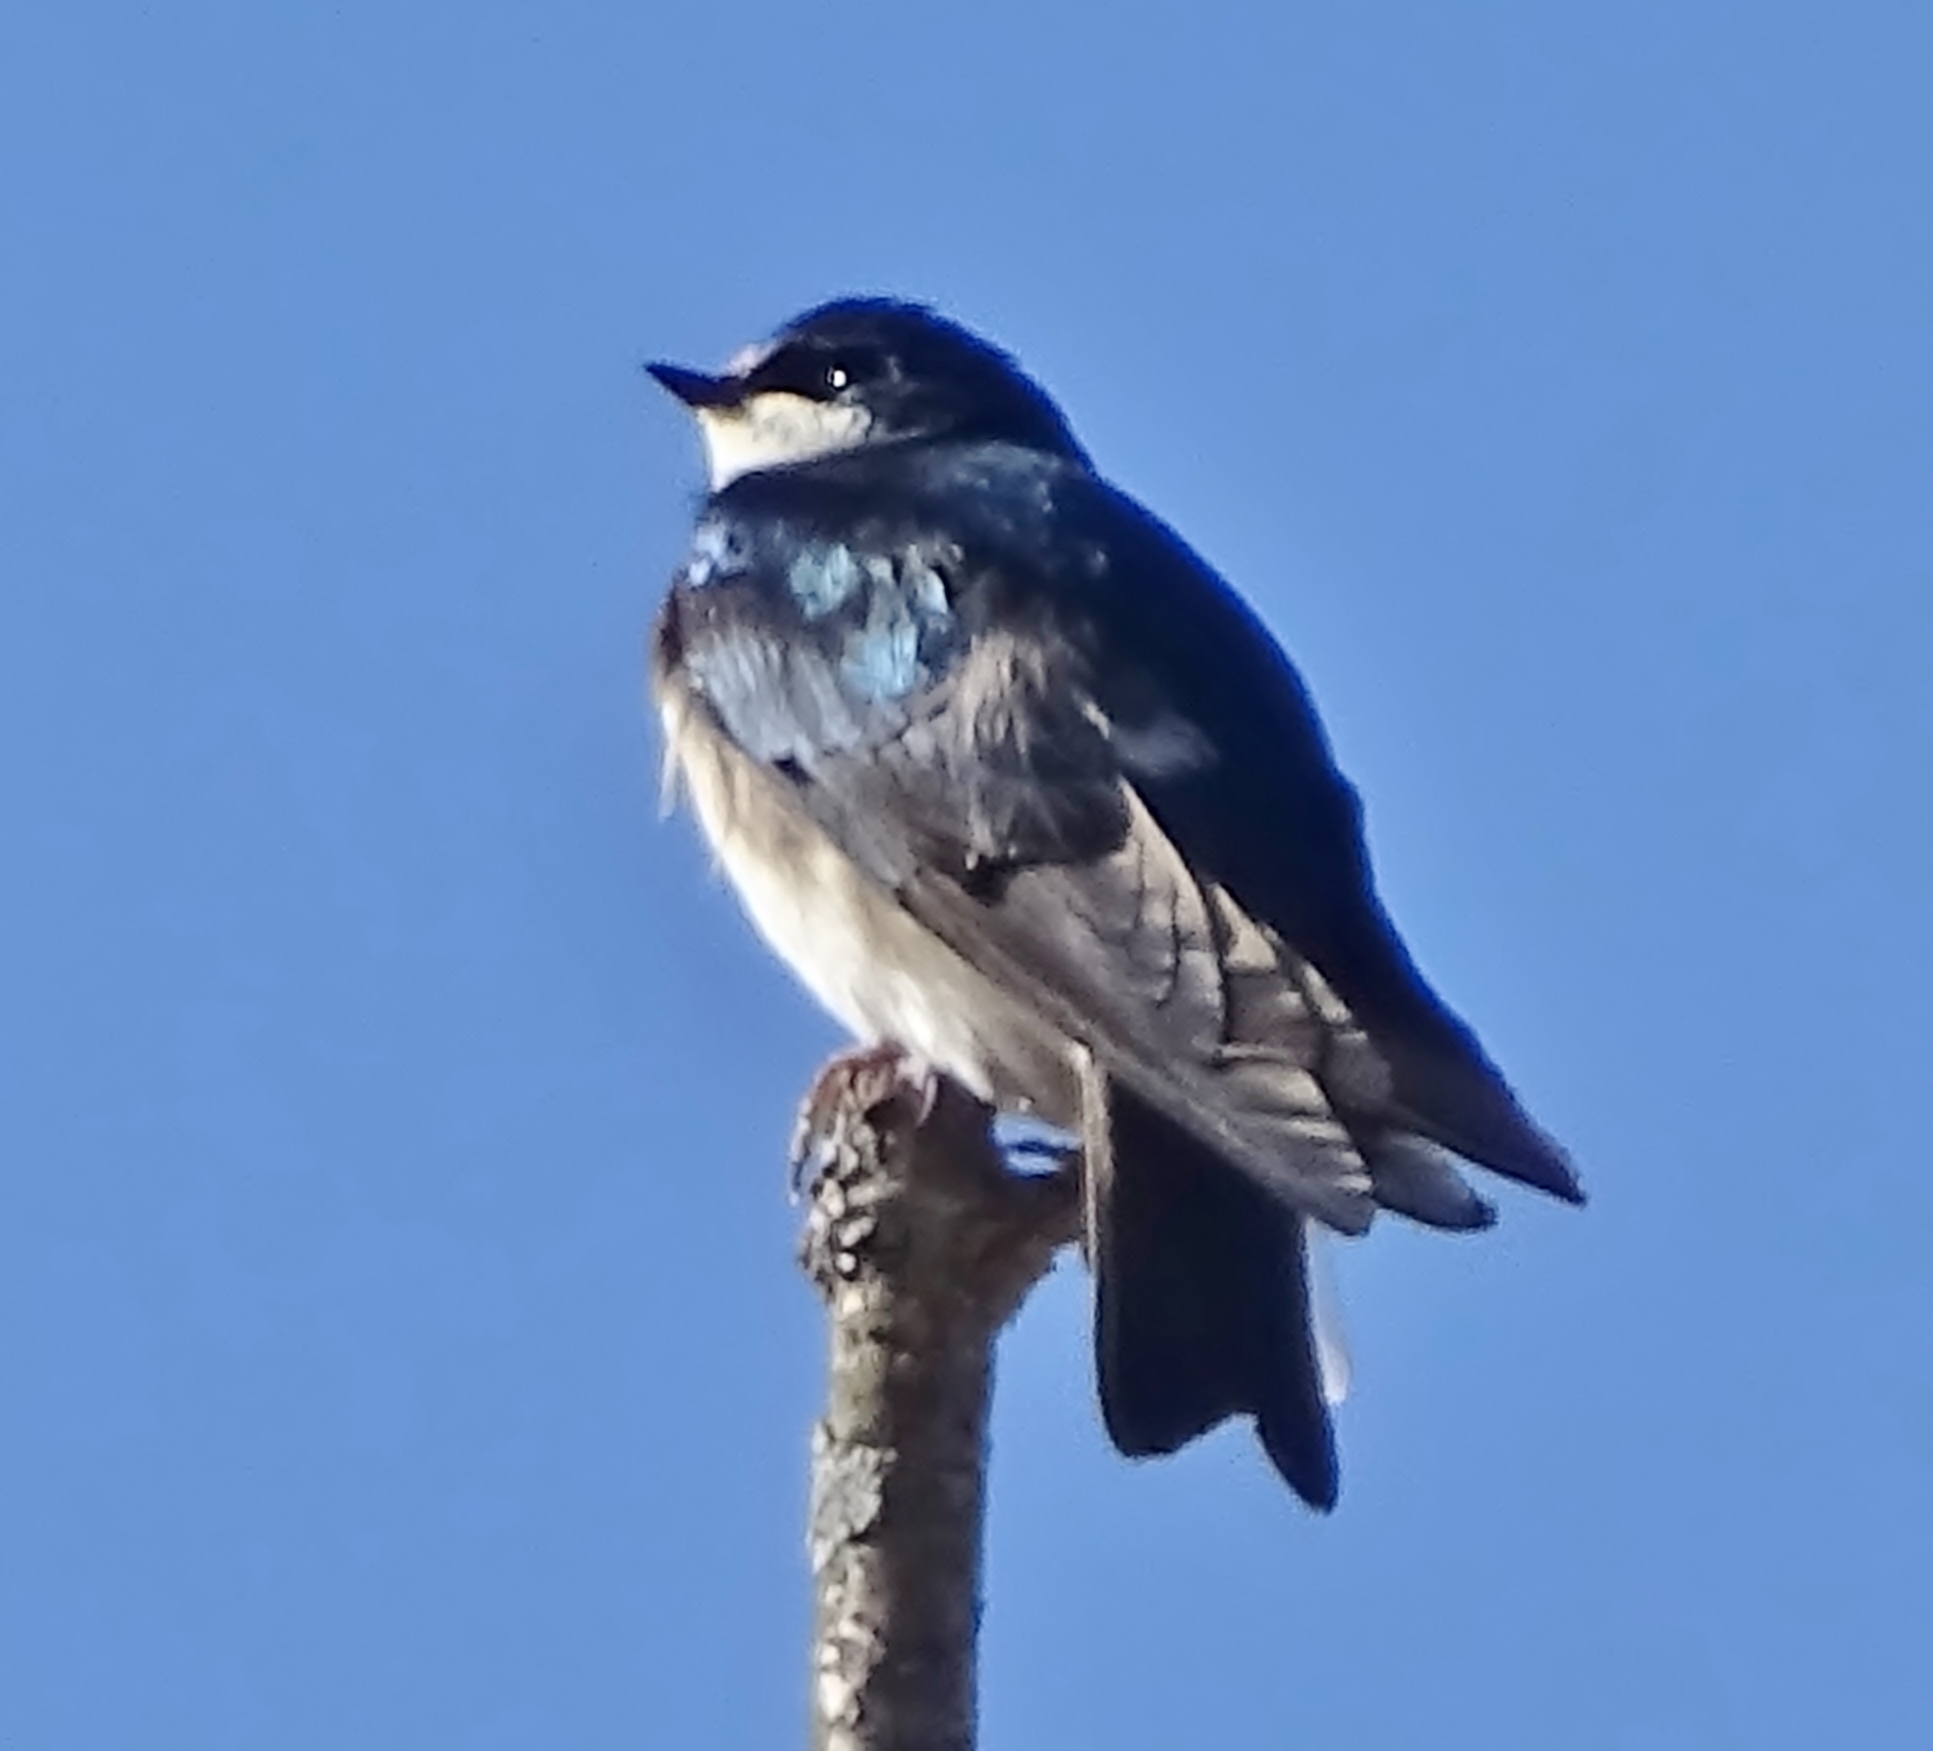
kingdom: Animalia
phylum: Chordata
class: Aves
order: Passeriformes
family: Hirundinidae
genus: Tachycineta
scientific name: Tachycineta bicolor
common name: Tree swallow
